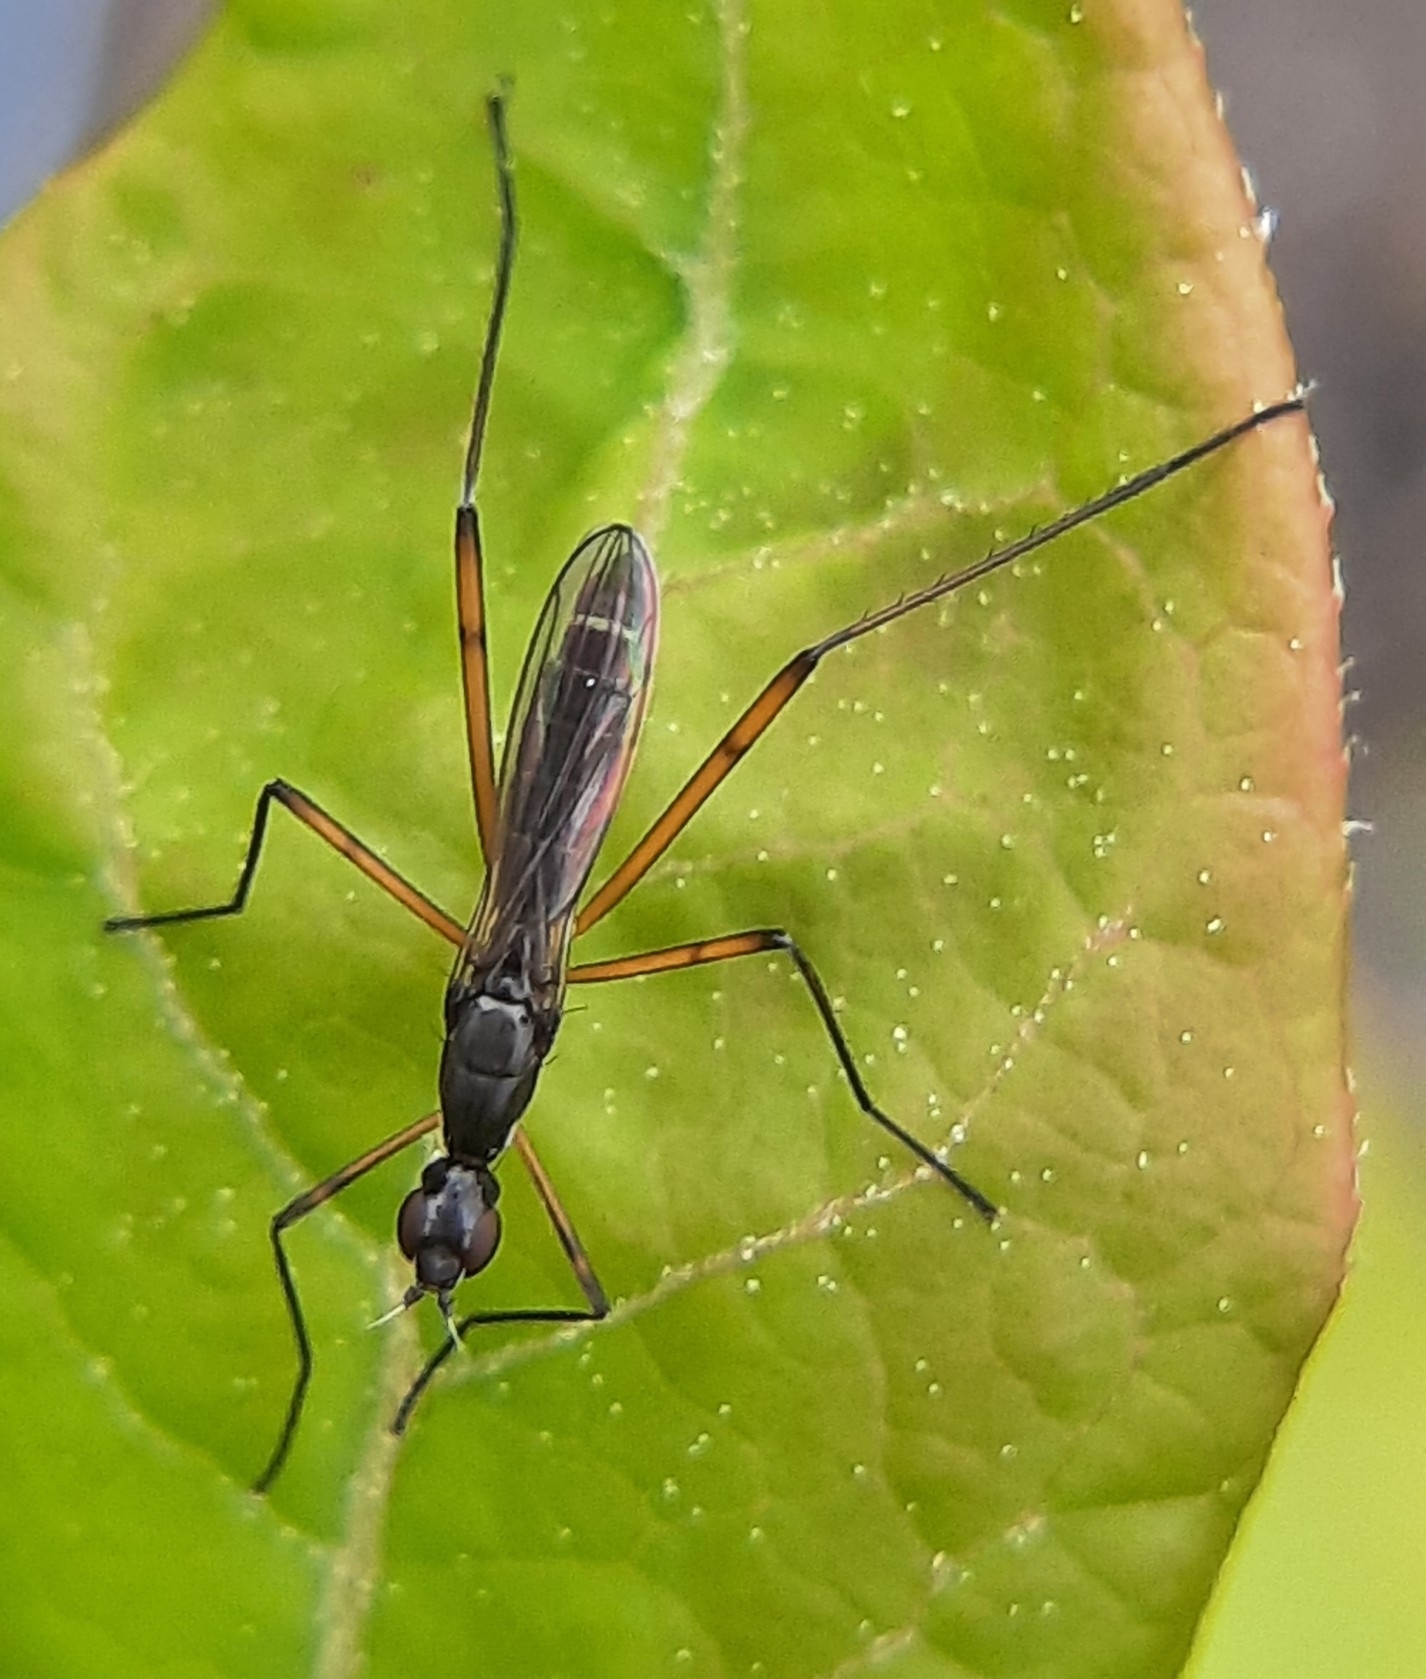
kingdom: Animalia
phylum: Arthropoda
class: Insecta
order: Diptera
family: Micropezidae
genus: Micropeza
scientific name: Micropeza corrigiolata
